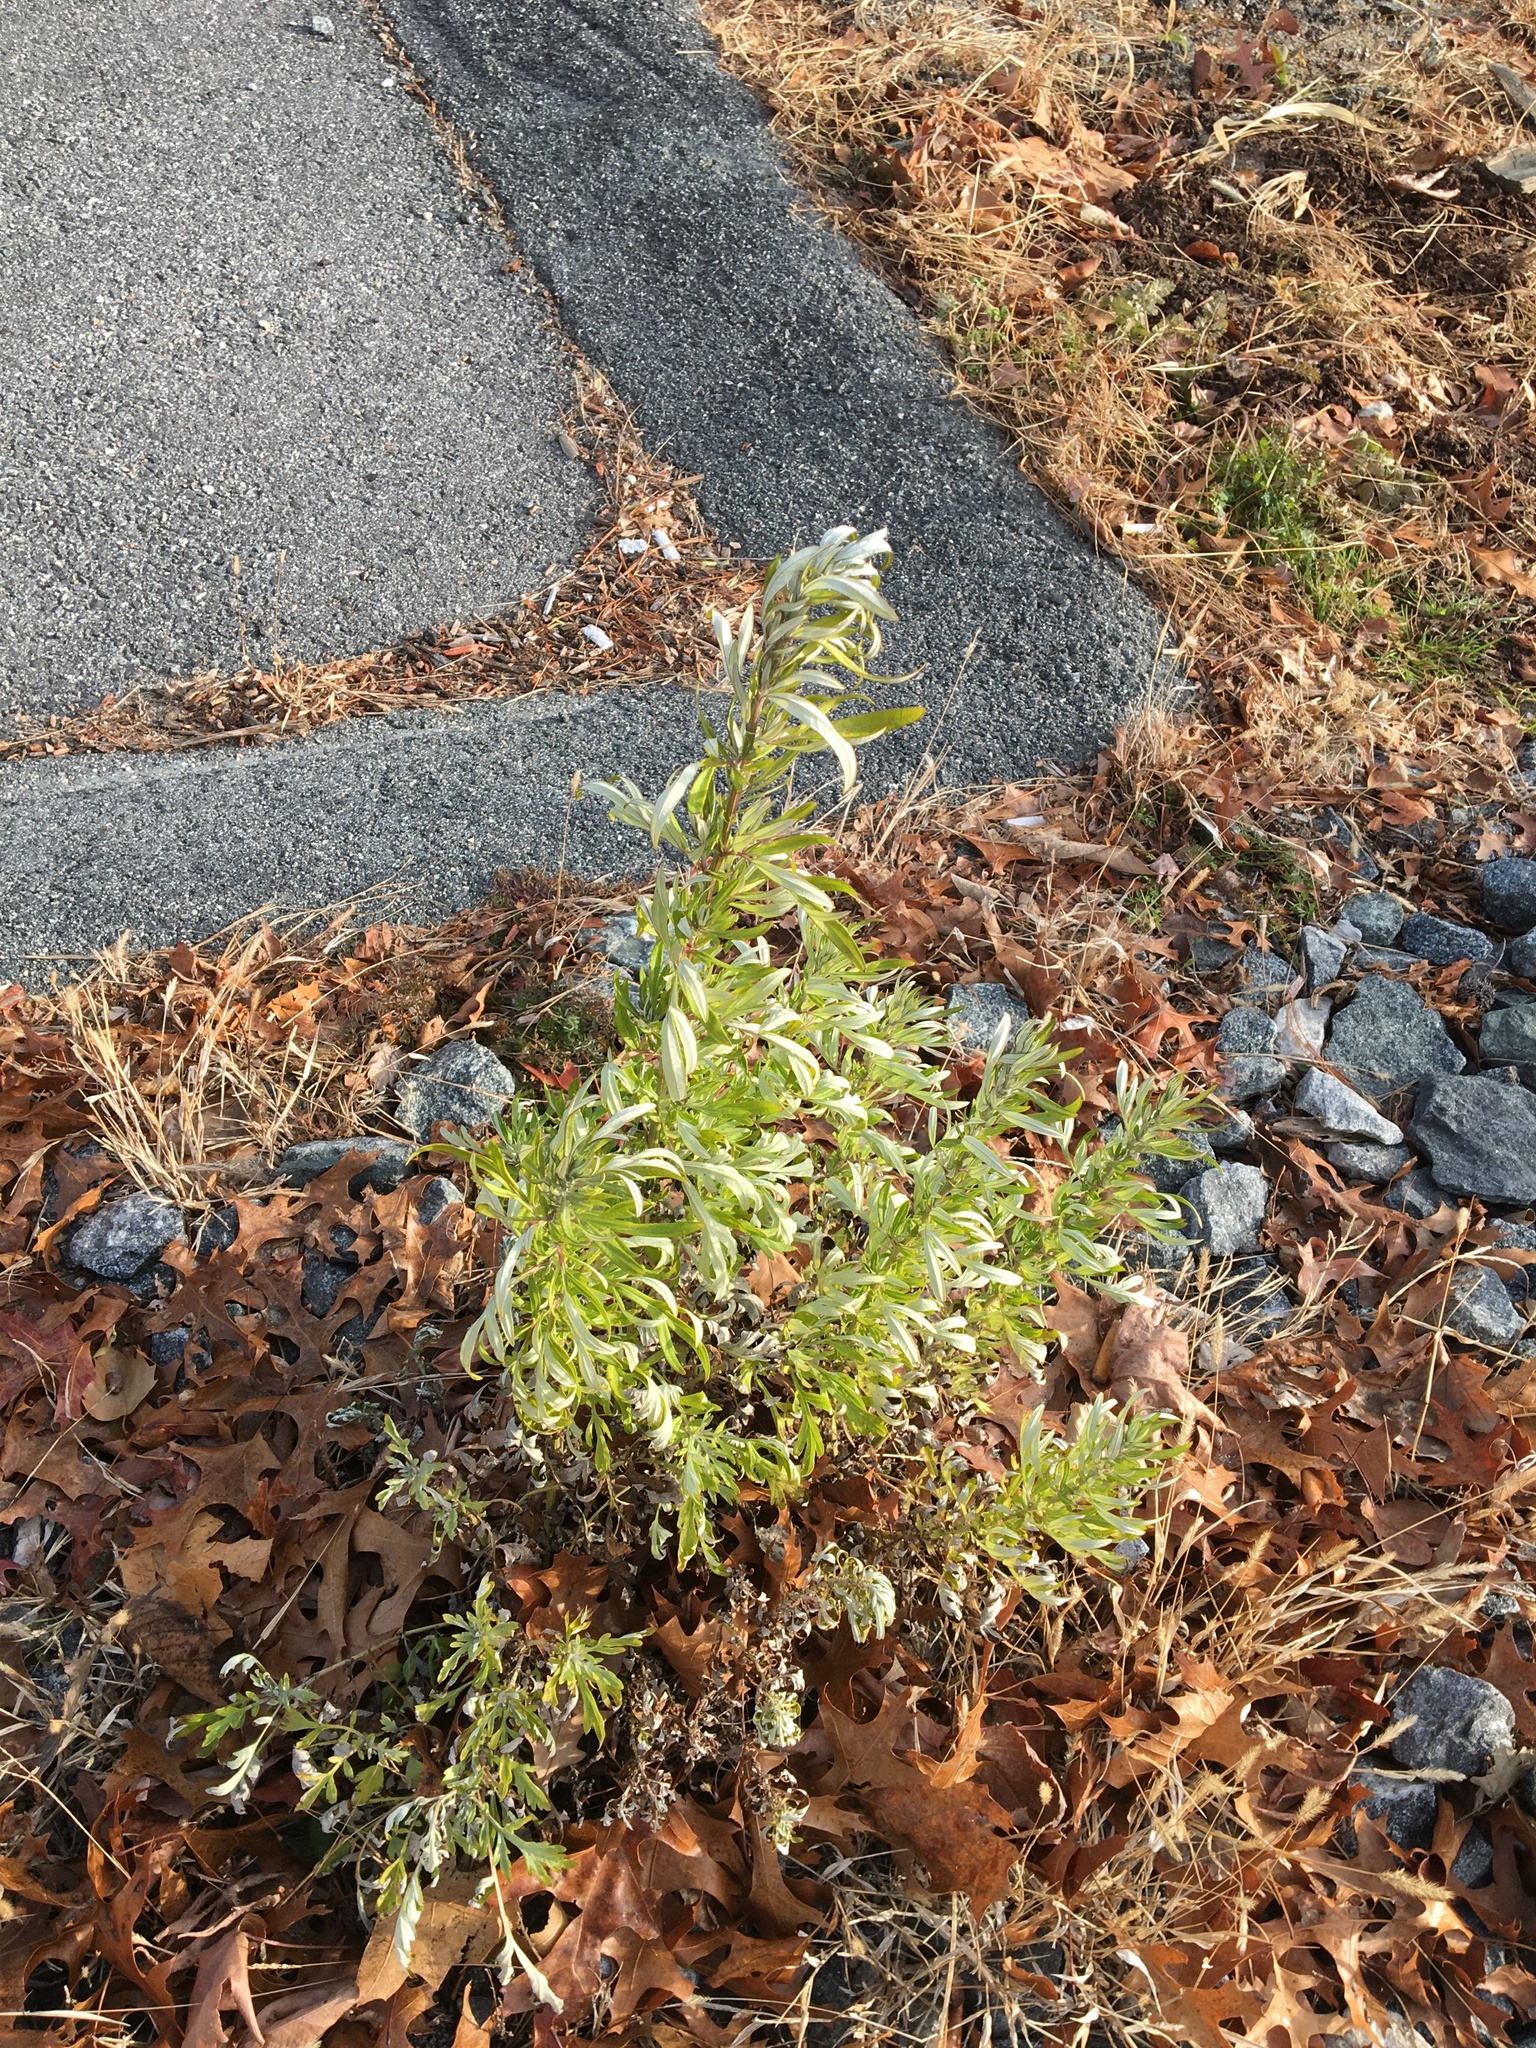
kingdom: Plantae
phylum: Tracheophyta
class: Magnoliopsida
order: Asterales
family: Asteraceae
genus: Artemisia
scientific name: Artemisia vulgaris
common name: Mugwort
